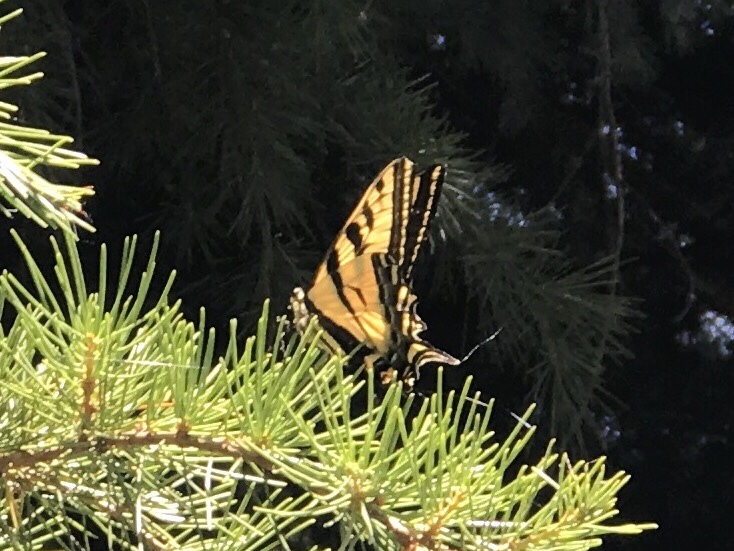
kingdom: Animalia
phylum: Arthropoda
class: Insecta
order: Lepidoptera
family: Papilionidae
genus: Papilio
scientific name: Papilio rutulus
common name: Western tiger swallowtail
